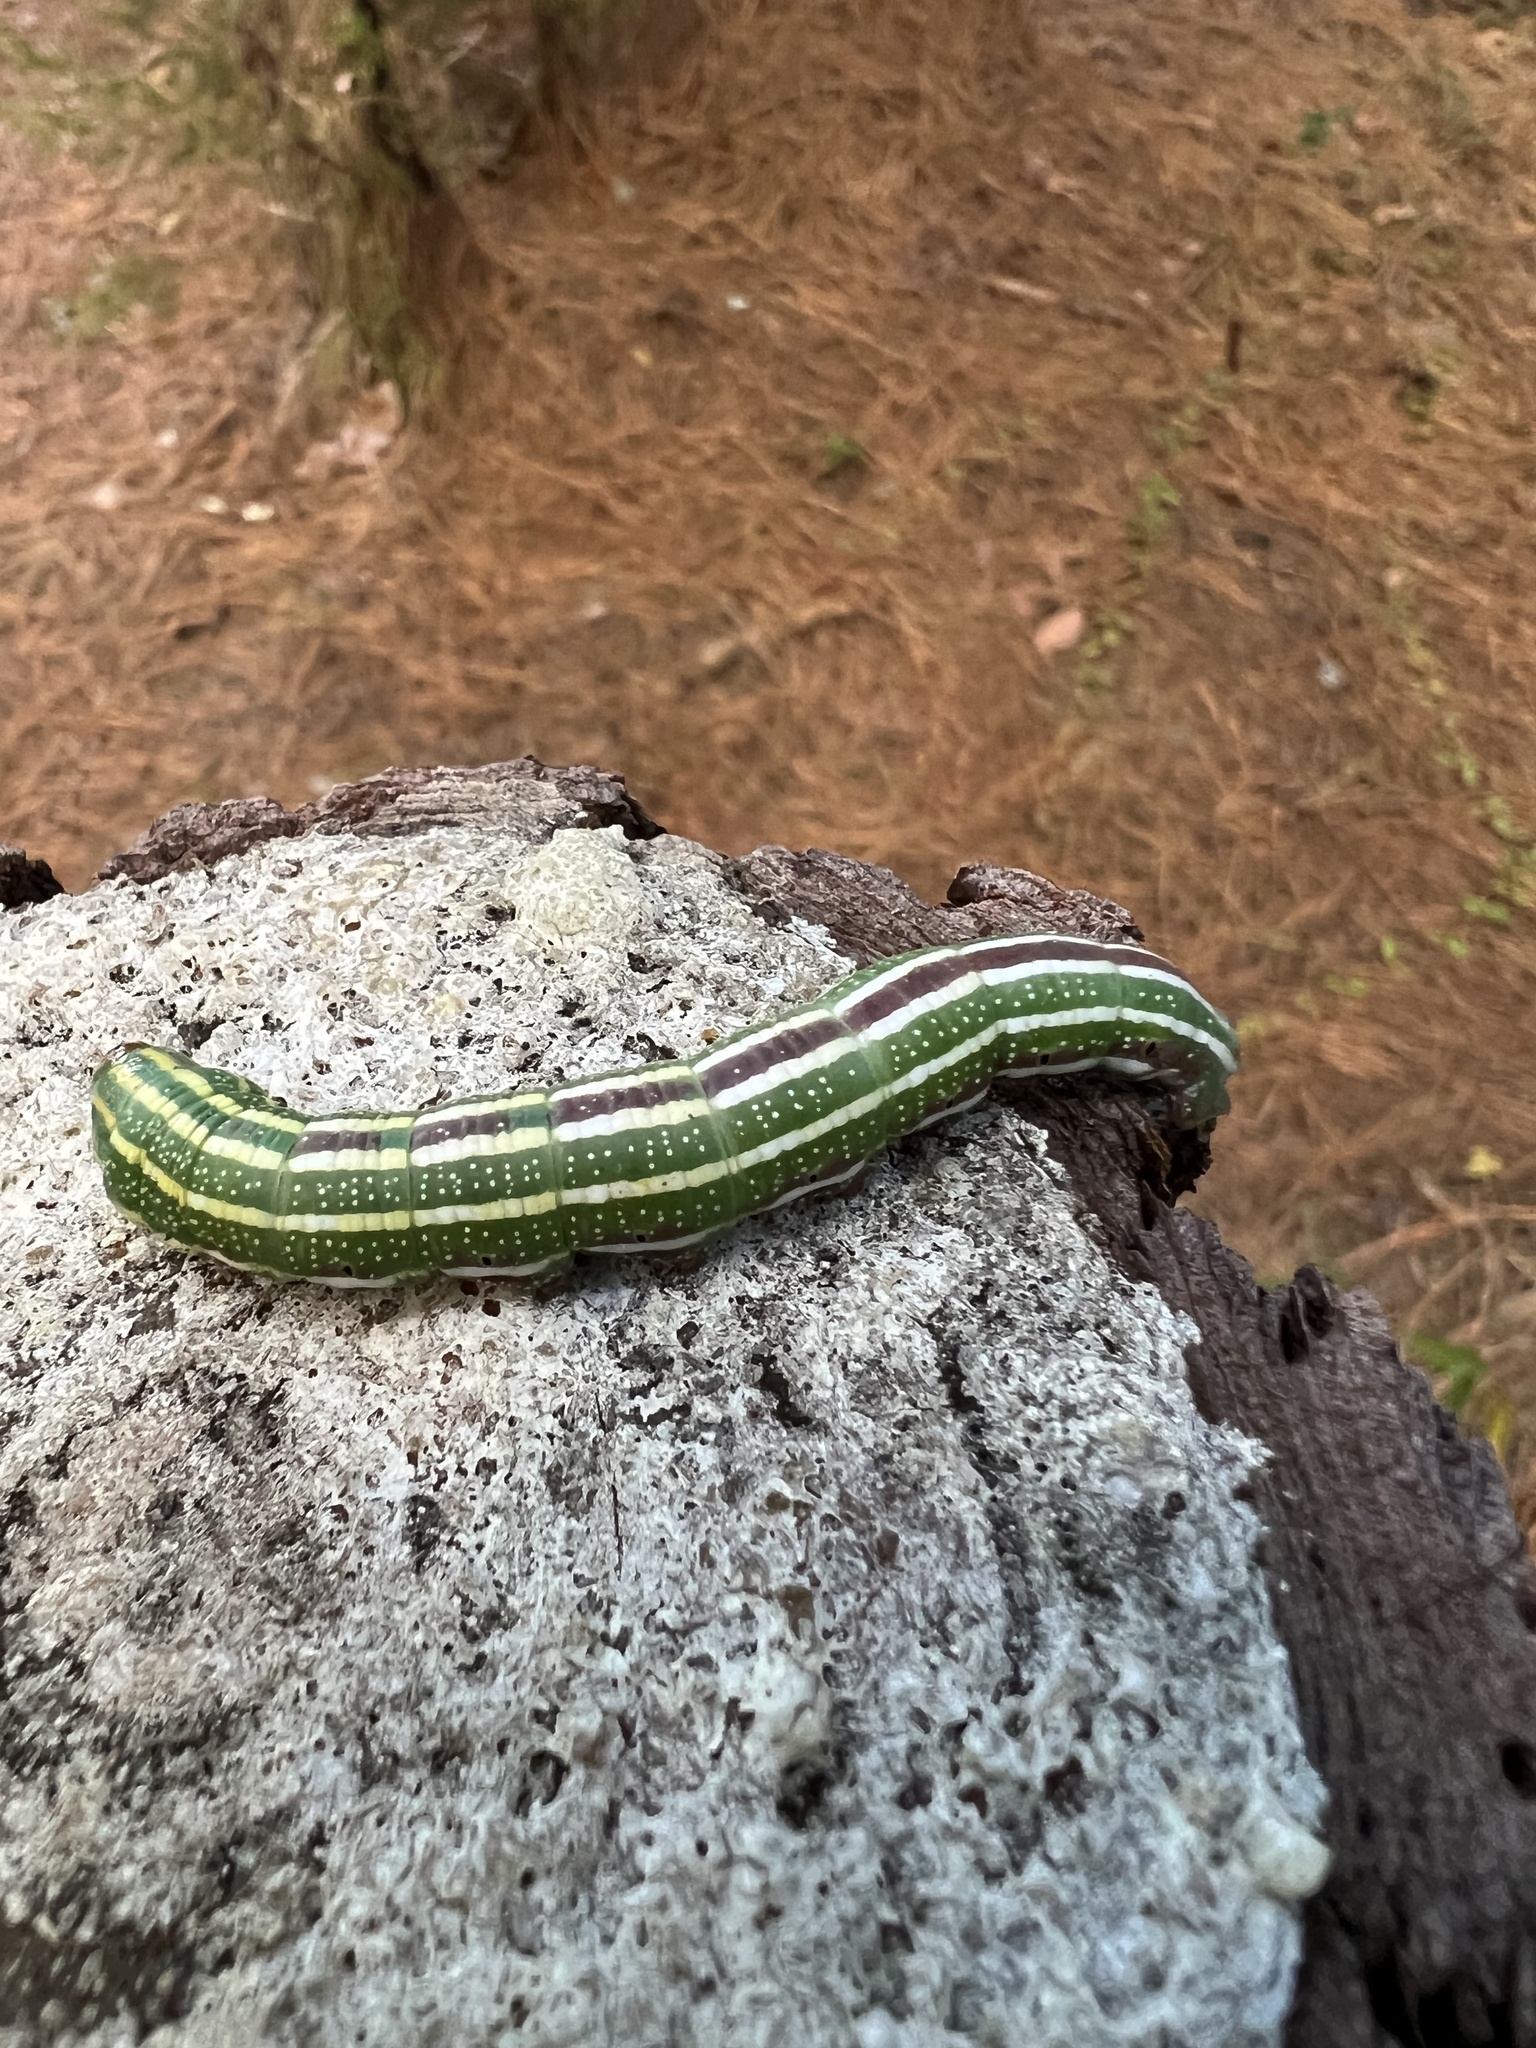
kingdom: Animalia
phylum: Arthropoda
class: Insecta
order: Lepidoptera
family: Sphingidae
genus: Lapara
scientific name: Lapara coniferarum
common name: Southern pine sphinx
